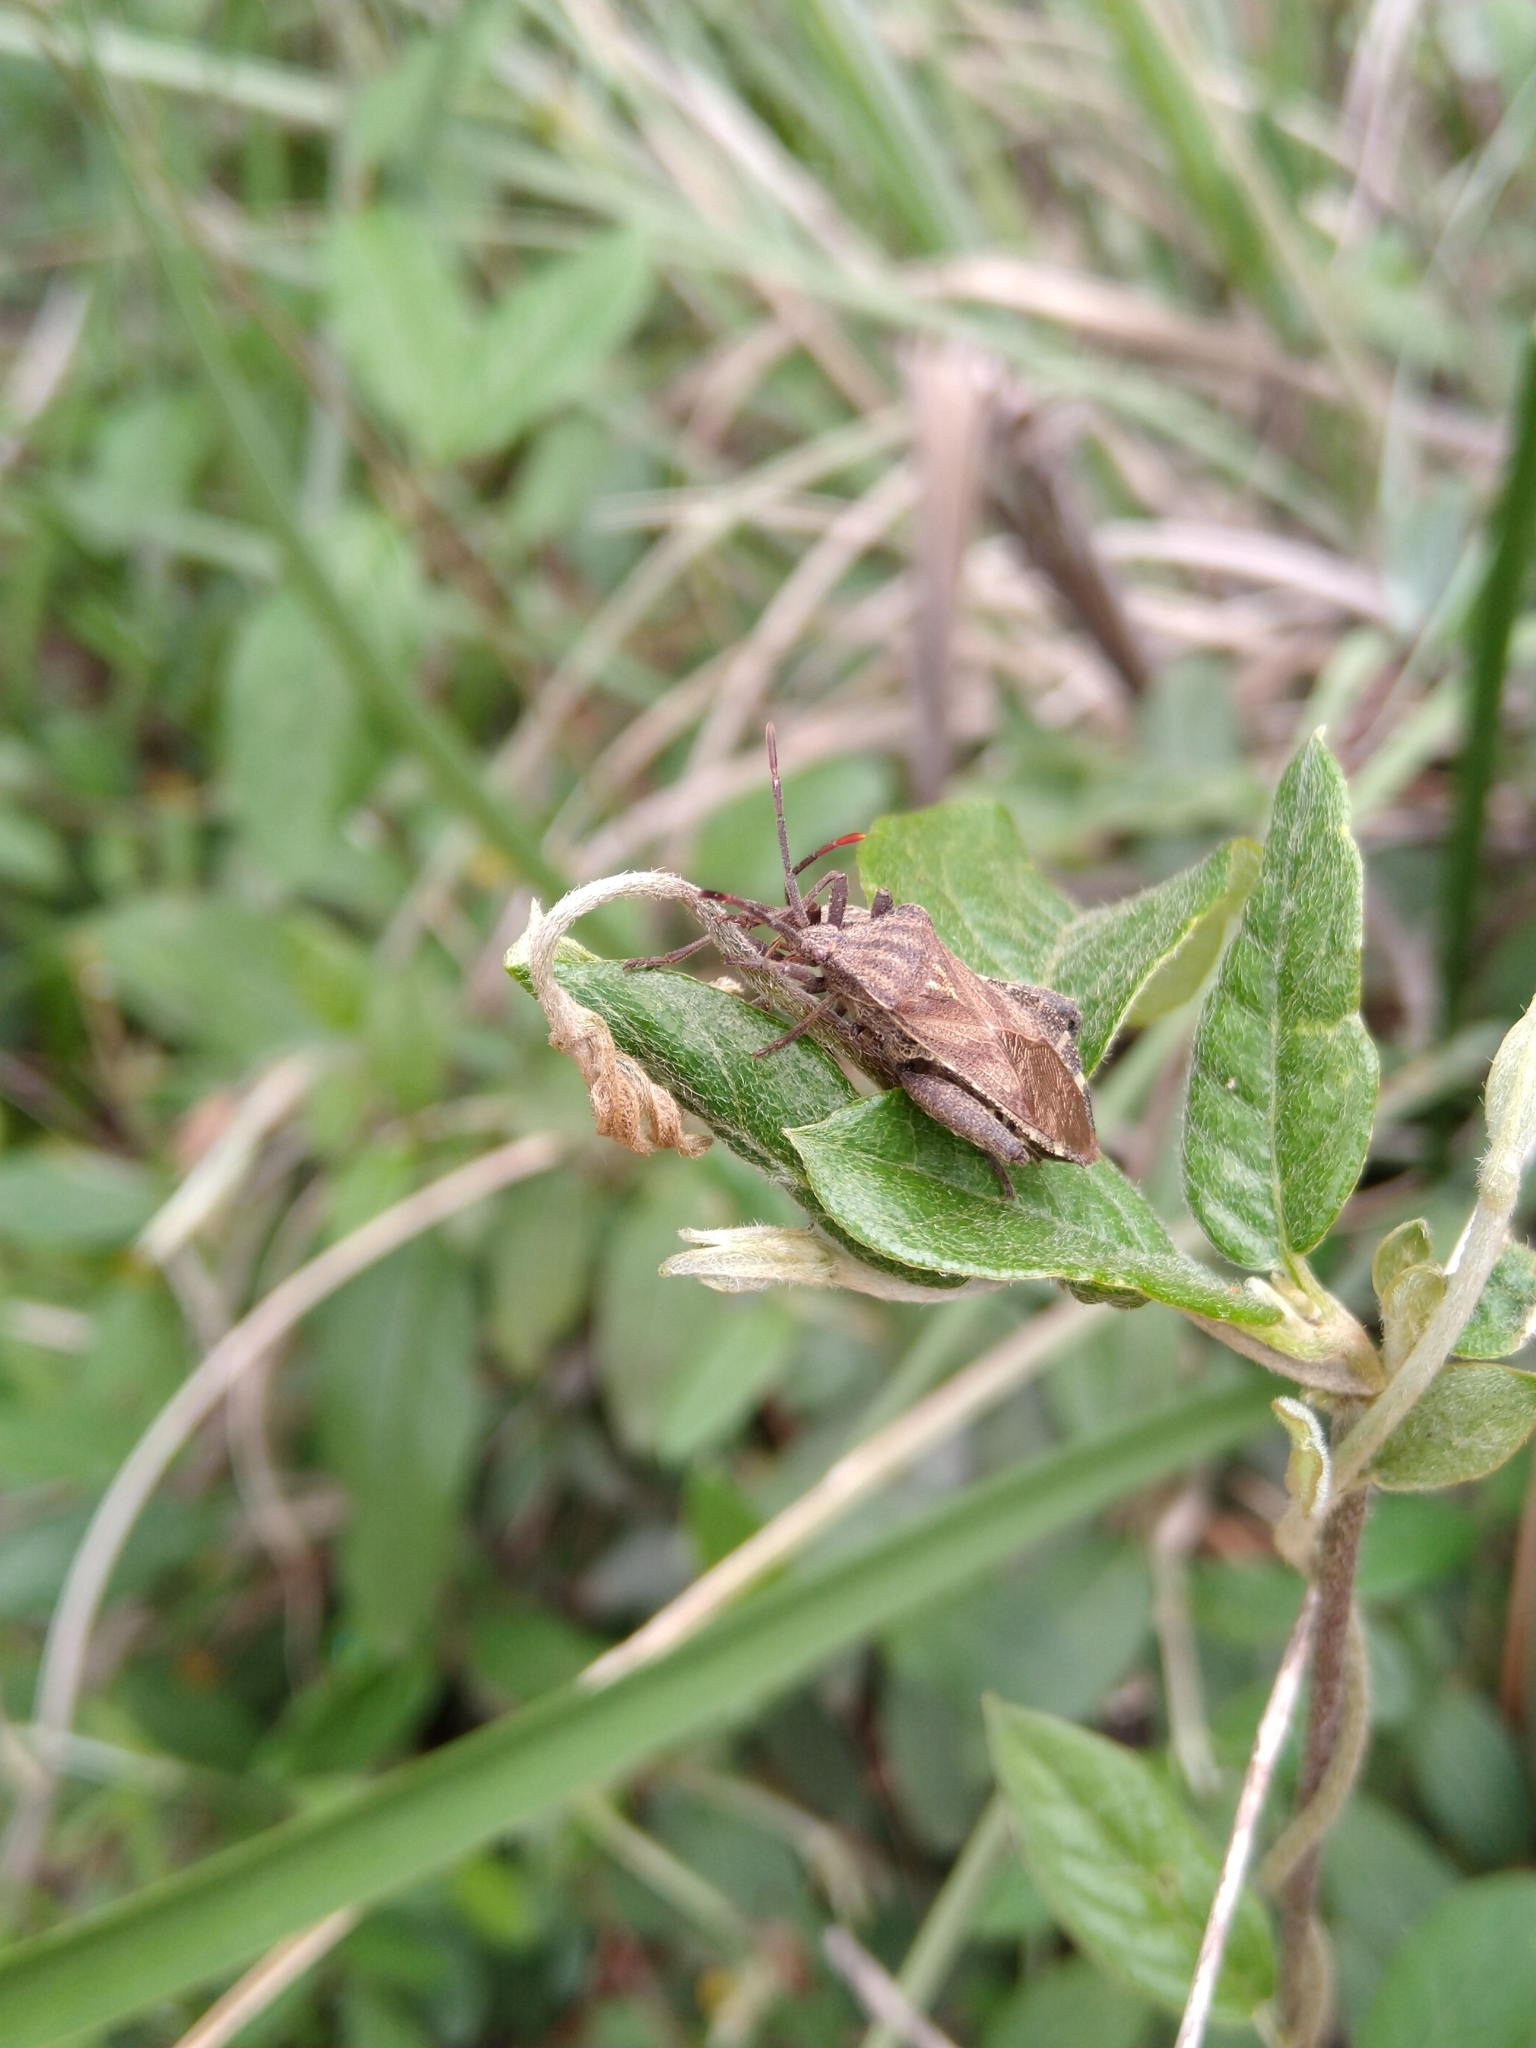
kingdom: Animalia
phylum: Arthropoda
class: Insecta
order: Hemiptera
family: Coreidae
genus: Piezogaster
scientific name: Piezogaster indecorus
